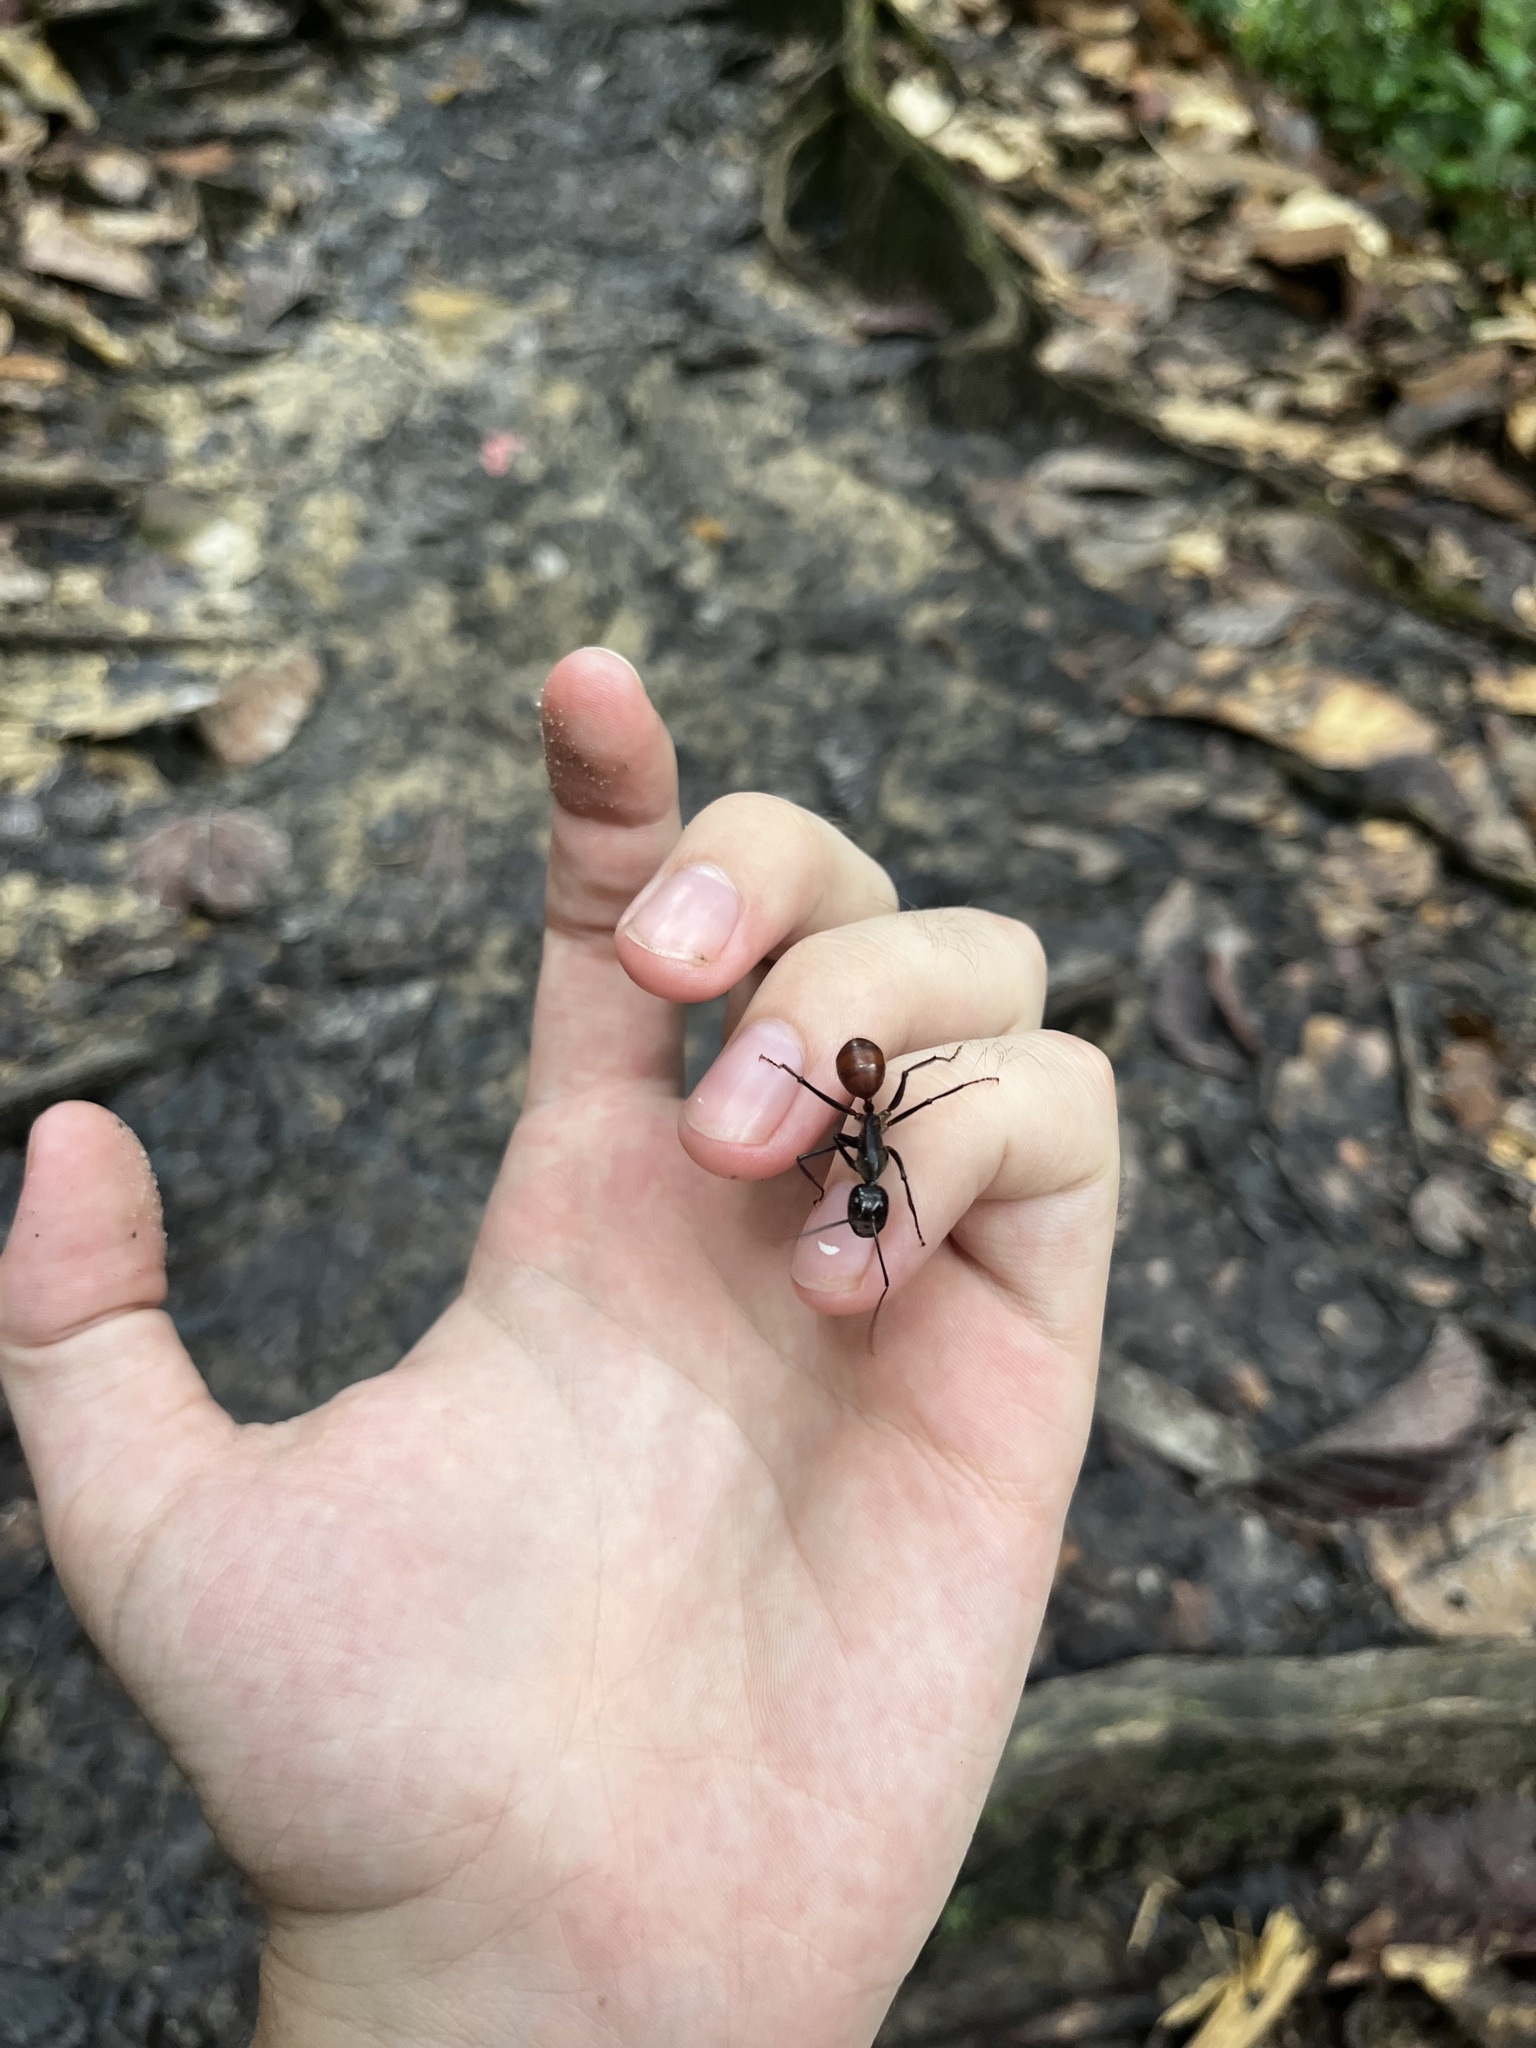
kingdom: Animalia
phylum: Arthropoda
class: Insecta
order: Hymenoptera
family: Formicidae
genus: Dinomyrmex
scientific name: Dinomyrmex
